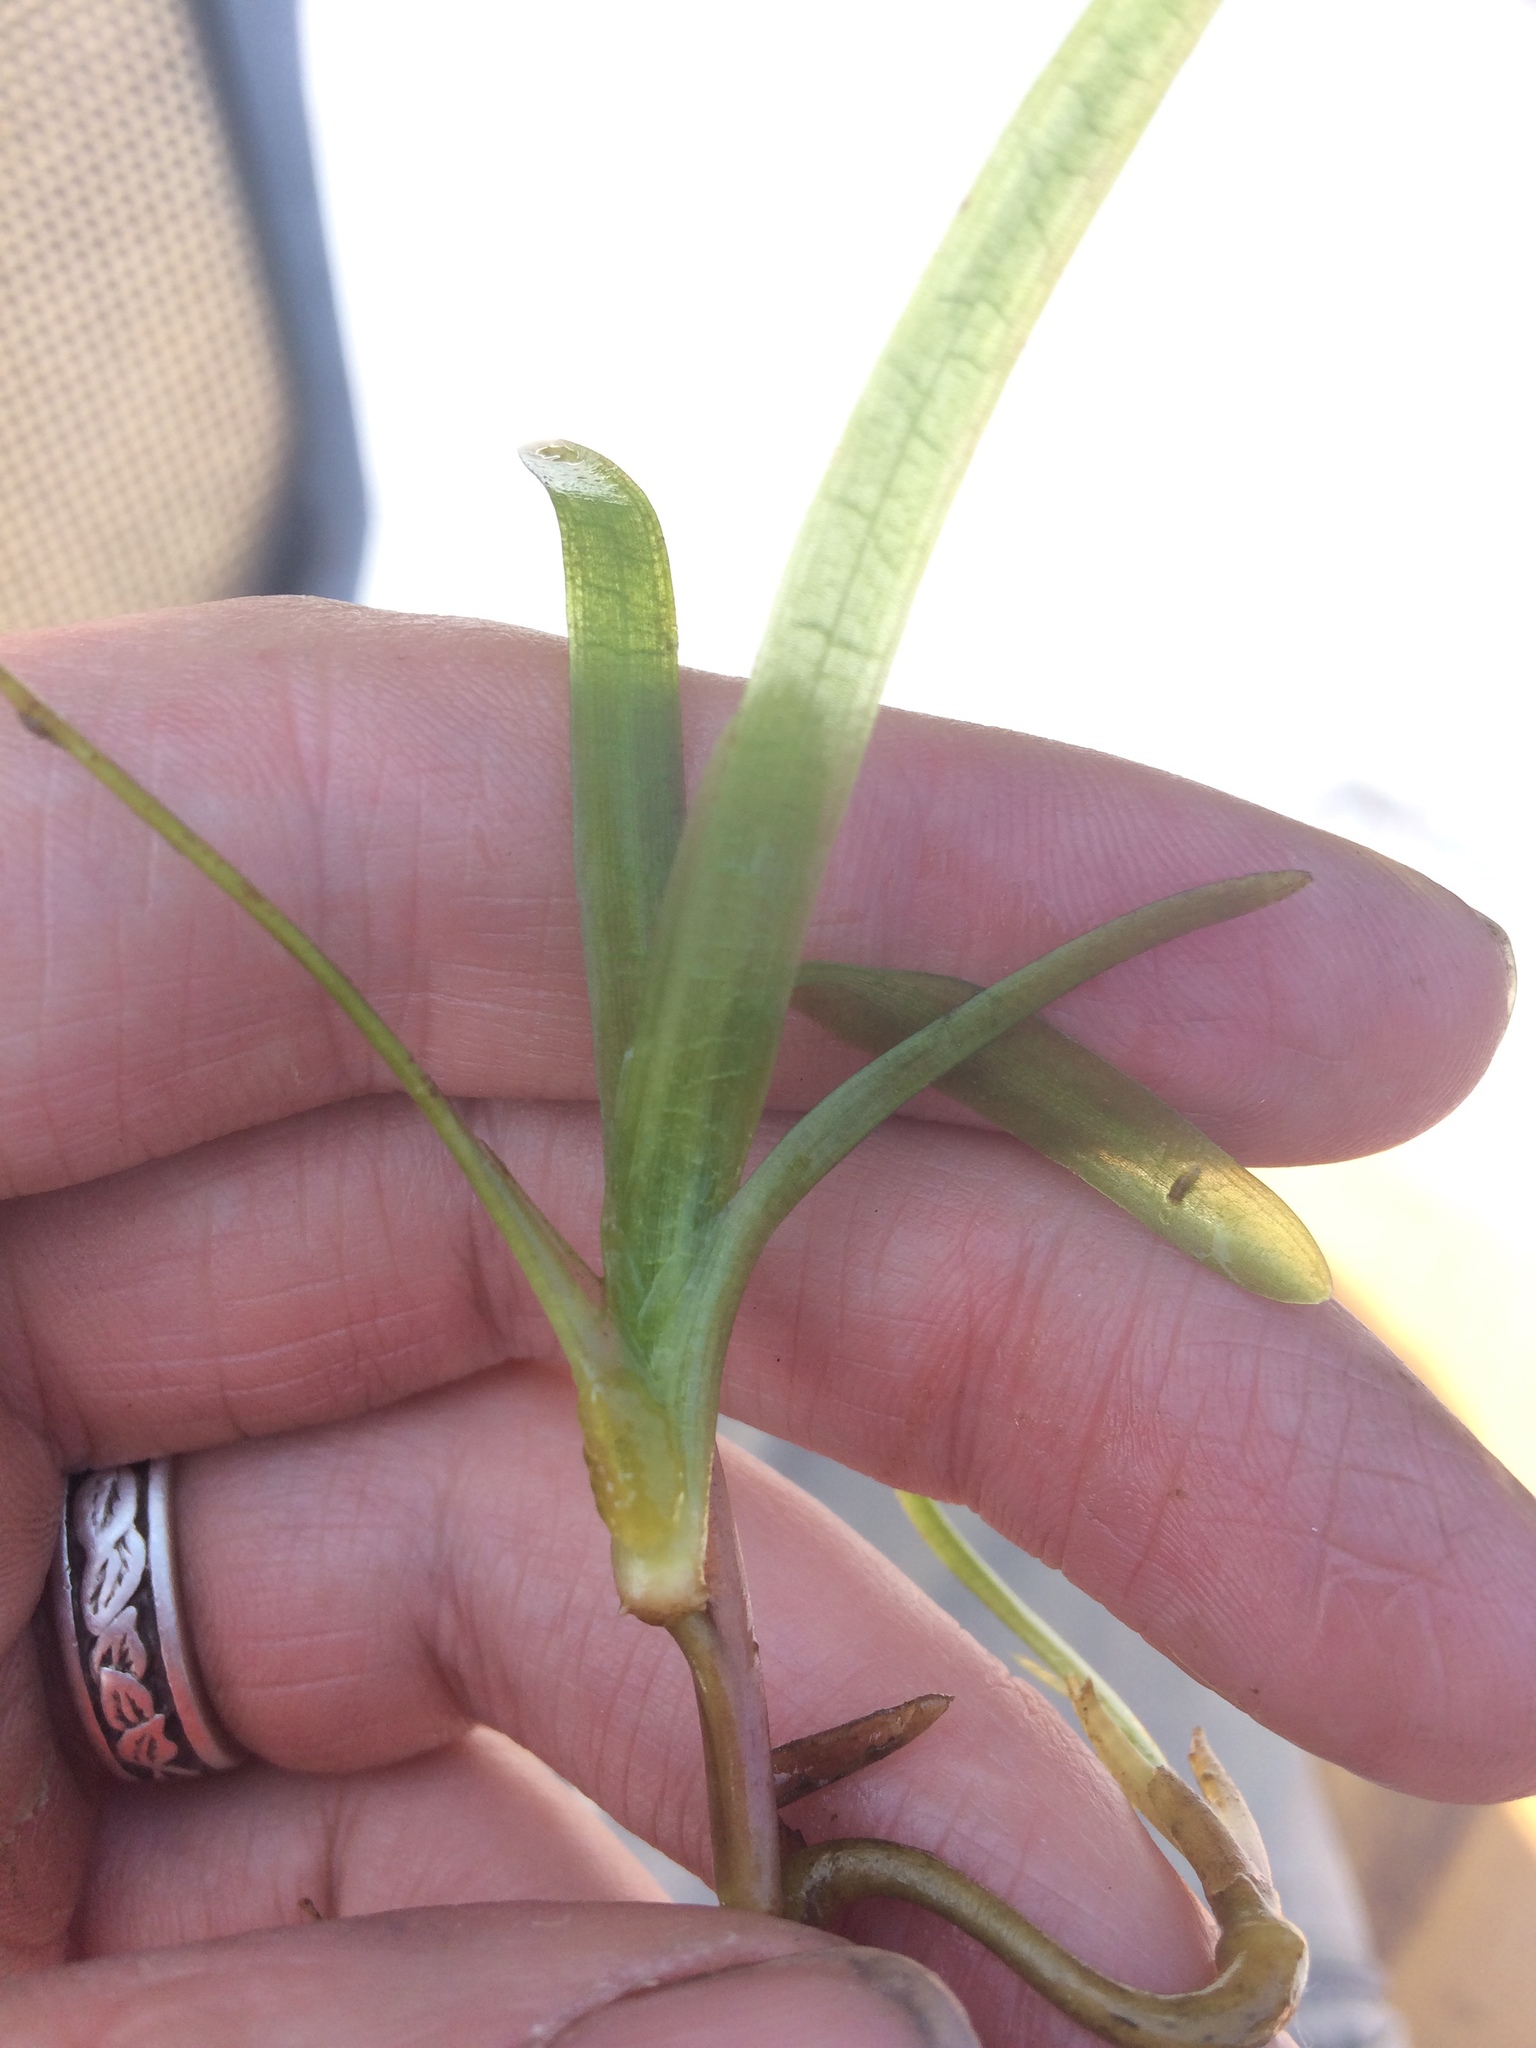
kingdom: Plantae
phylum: Tracheophyta
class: Liliopsida
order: Alismatales
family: Hydrocharitaceae
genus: Vallisneria
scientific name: Vallisneria americana
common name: American eelgrass
